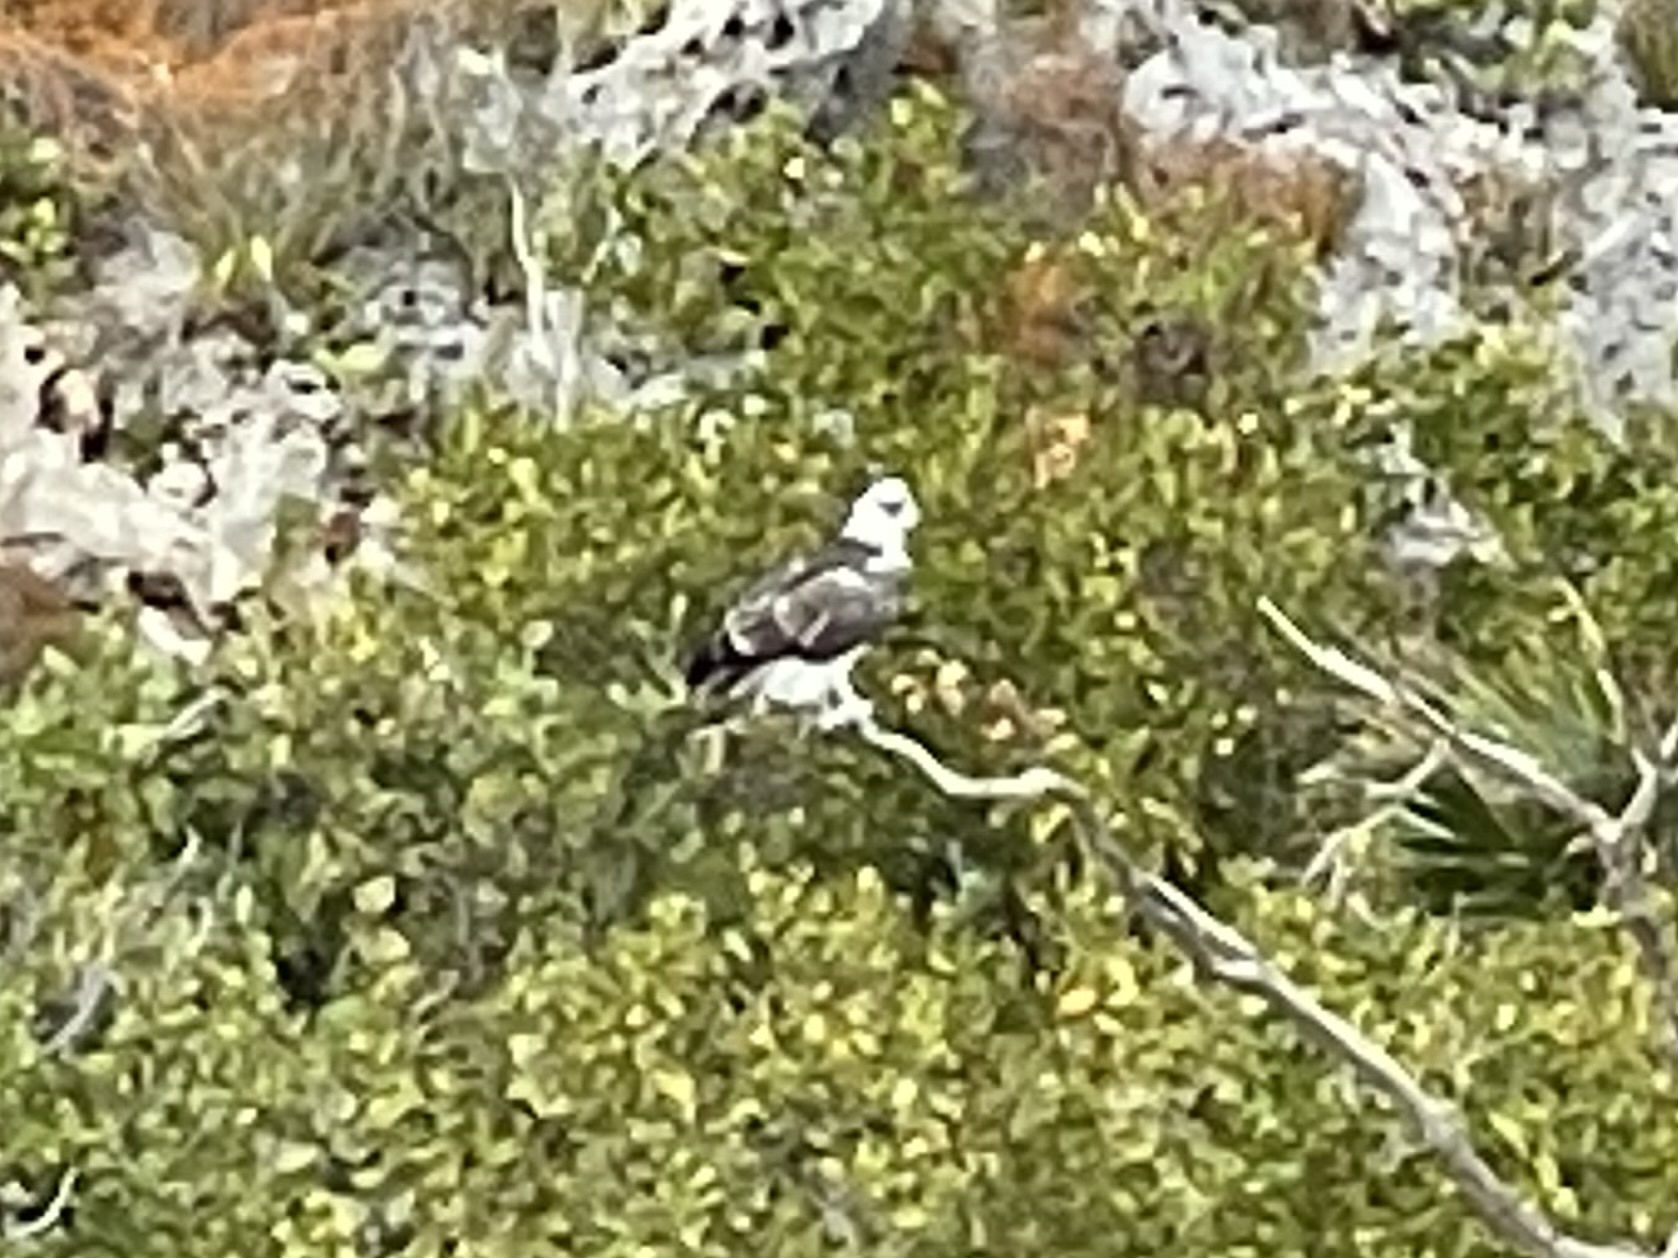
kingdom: Animalia
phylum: Chordata
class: Aves
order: Accipitriformes
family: Pandionidae
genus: Pandion
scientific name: Pandion haliaetus
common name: Osprey
